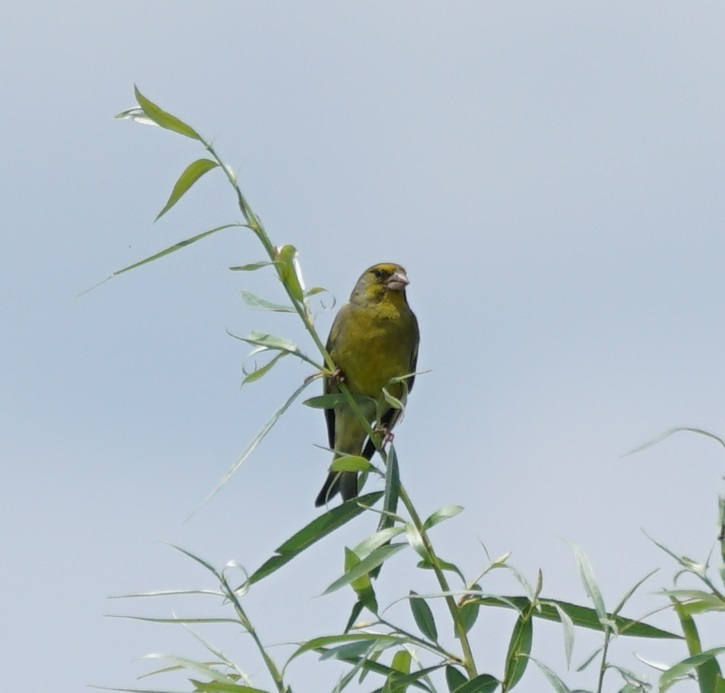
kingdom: Plantae
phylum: Tracheophyta
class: Liliopsida
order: Poales
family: Poaceae
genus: Chloris
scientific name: Chloris chloris
